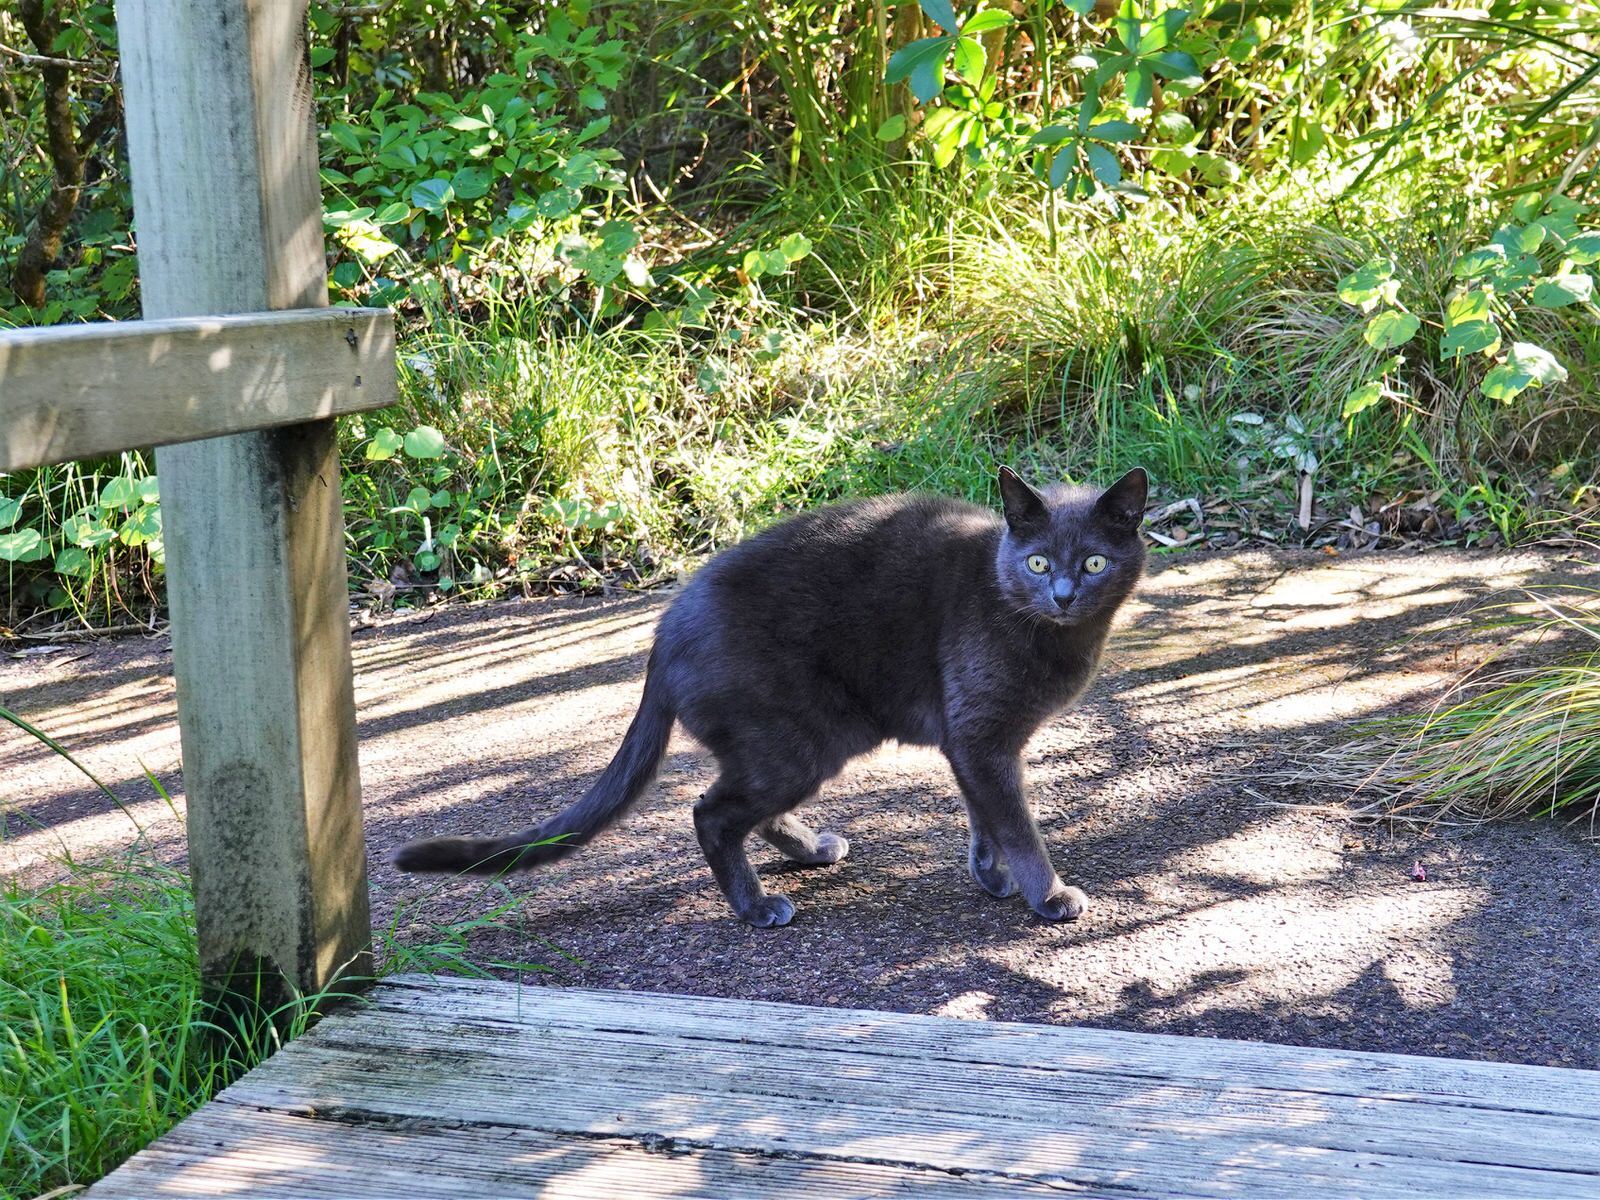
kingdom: Animalia
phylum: Chordata
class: Mammalia
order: Carnivora
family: Felidae
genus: Felis
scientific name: Felis catus
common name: Domestic cat
